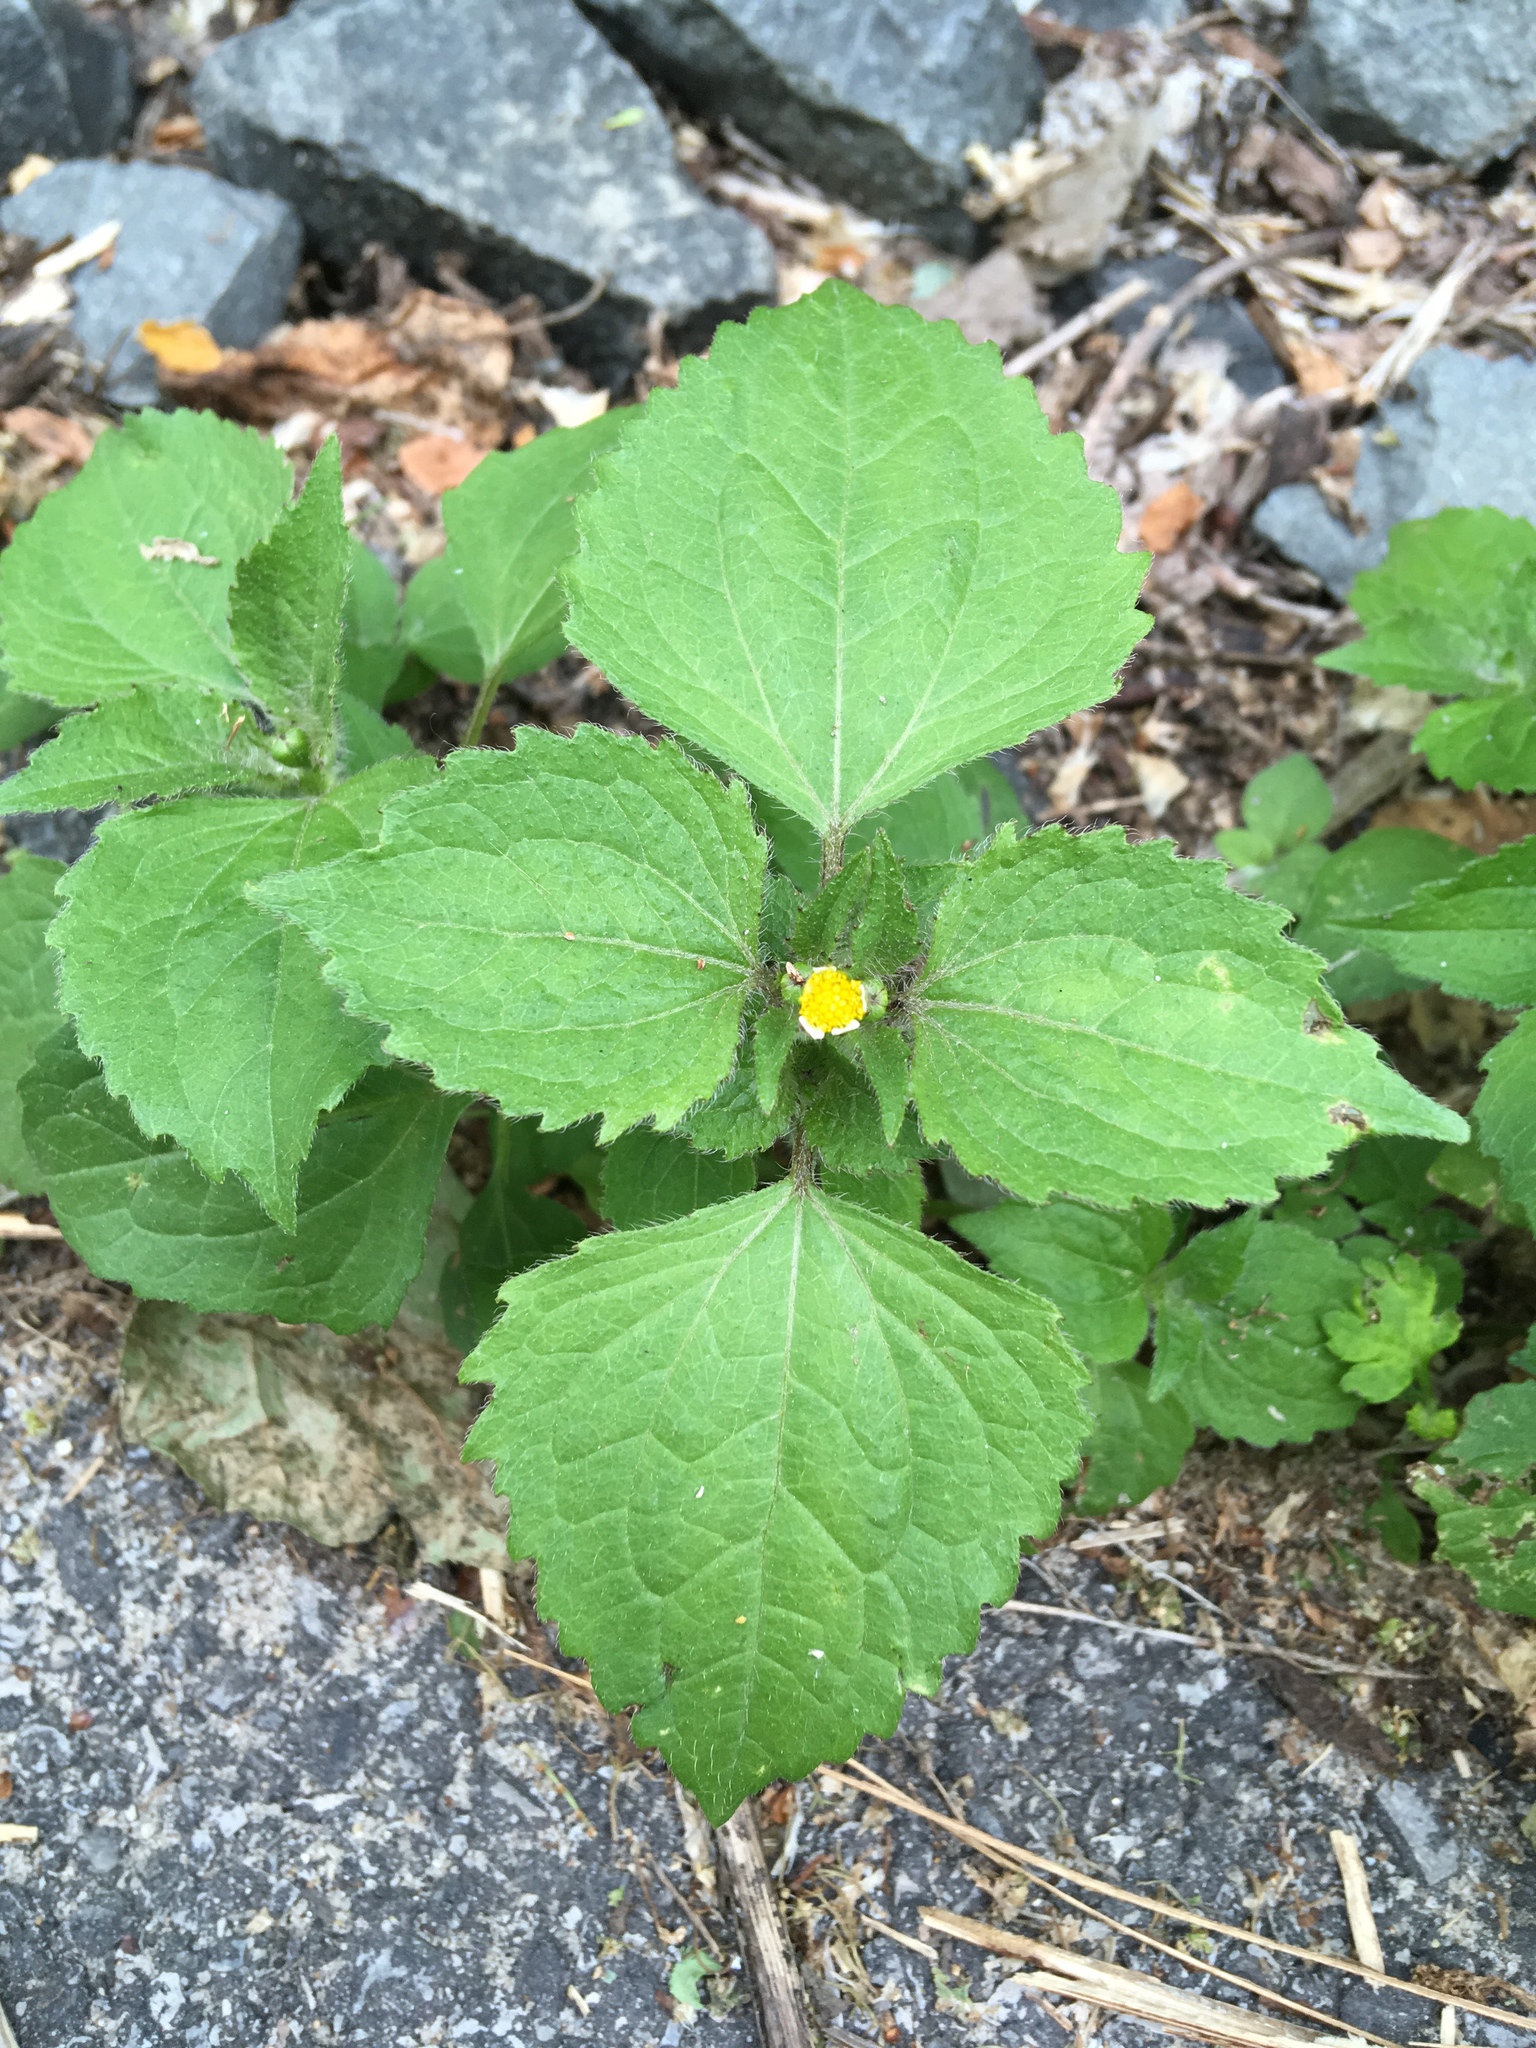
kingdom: Plantae
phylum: Tracheophyta
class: Magnoliopsida
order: Asterales
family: Asteraceae
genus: Galinsoga
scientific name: Galinsoga quadriradiata
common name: Shaggy soldier
